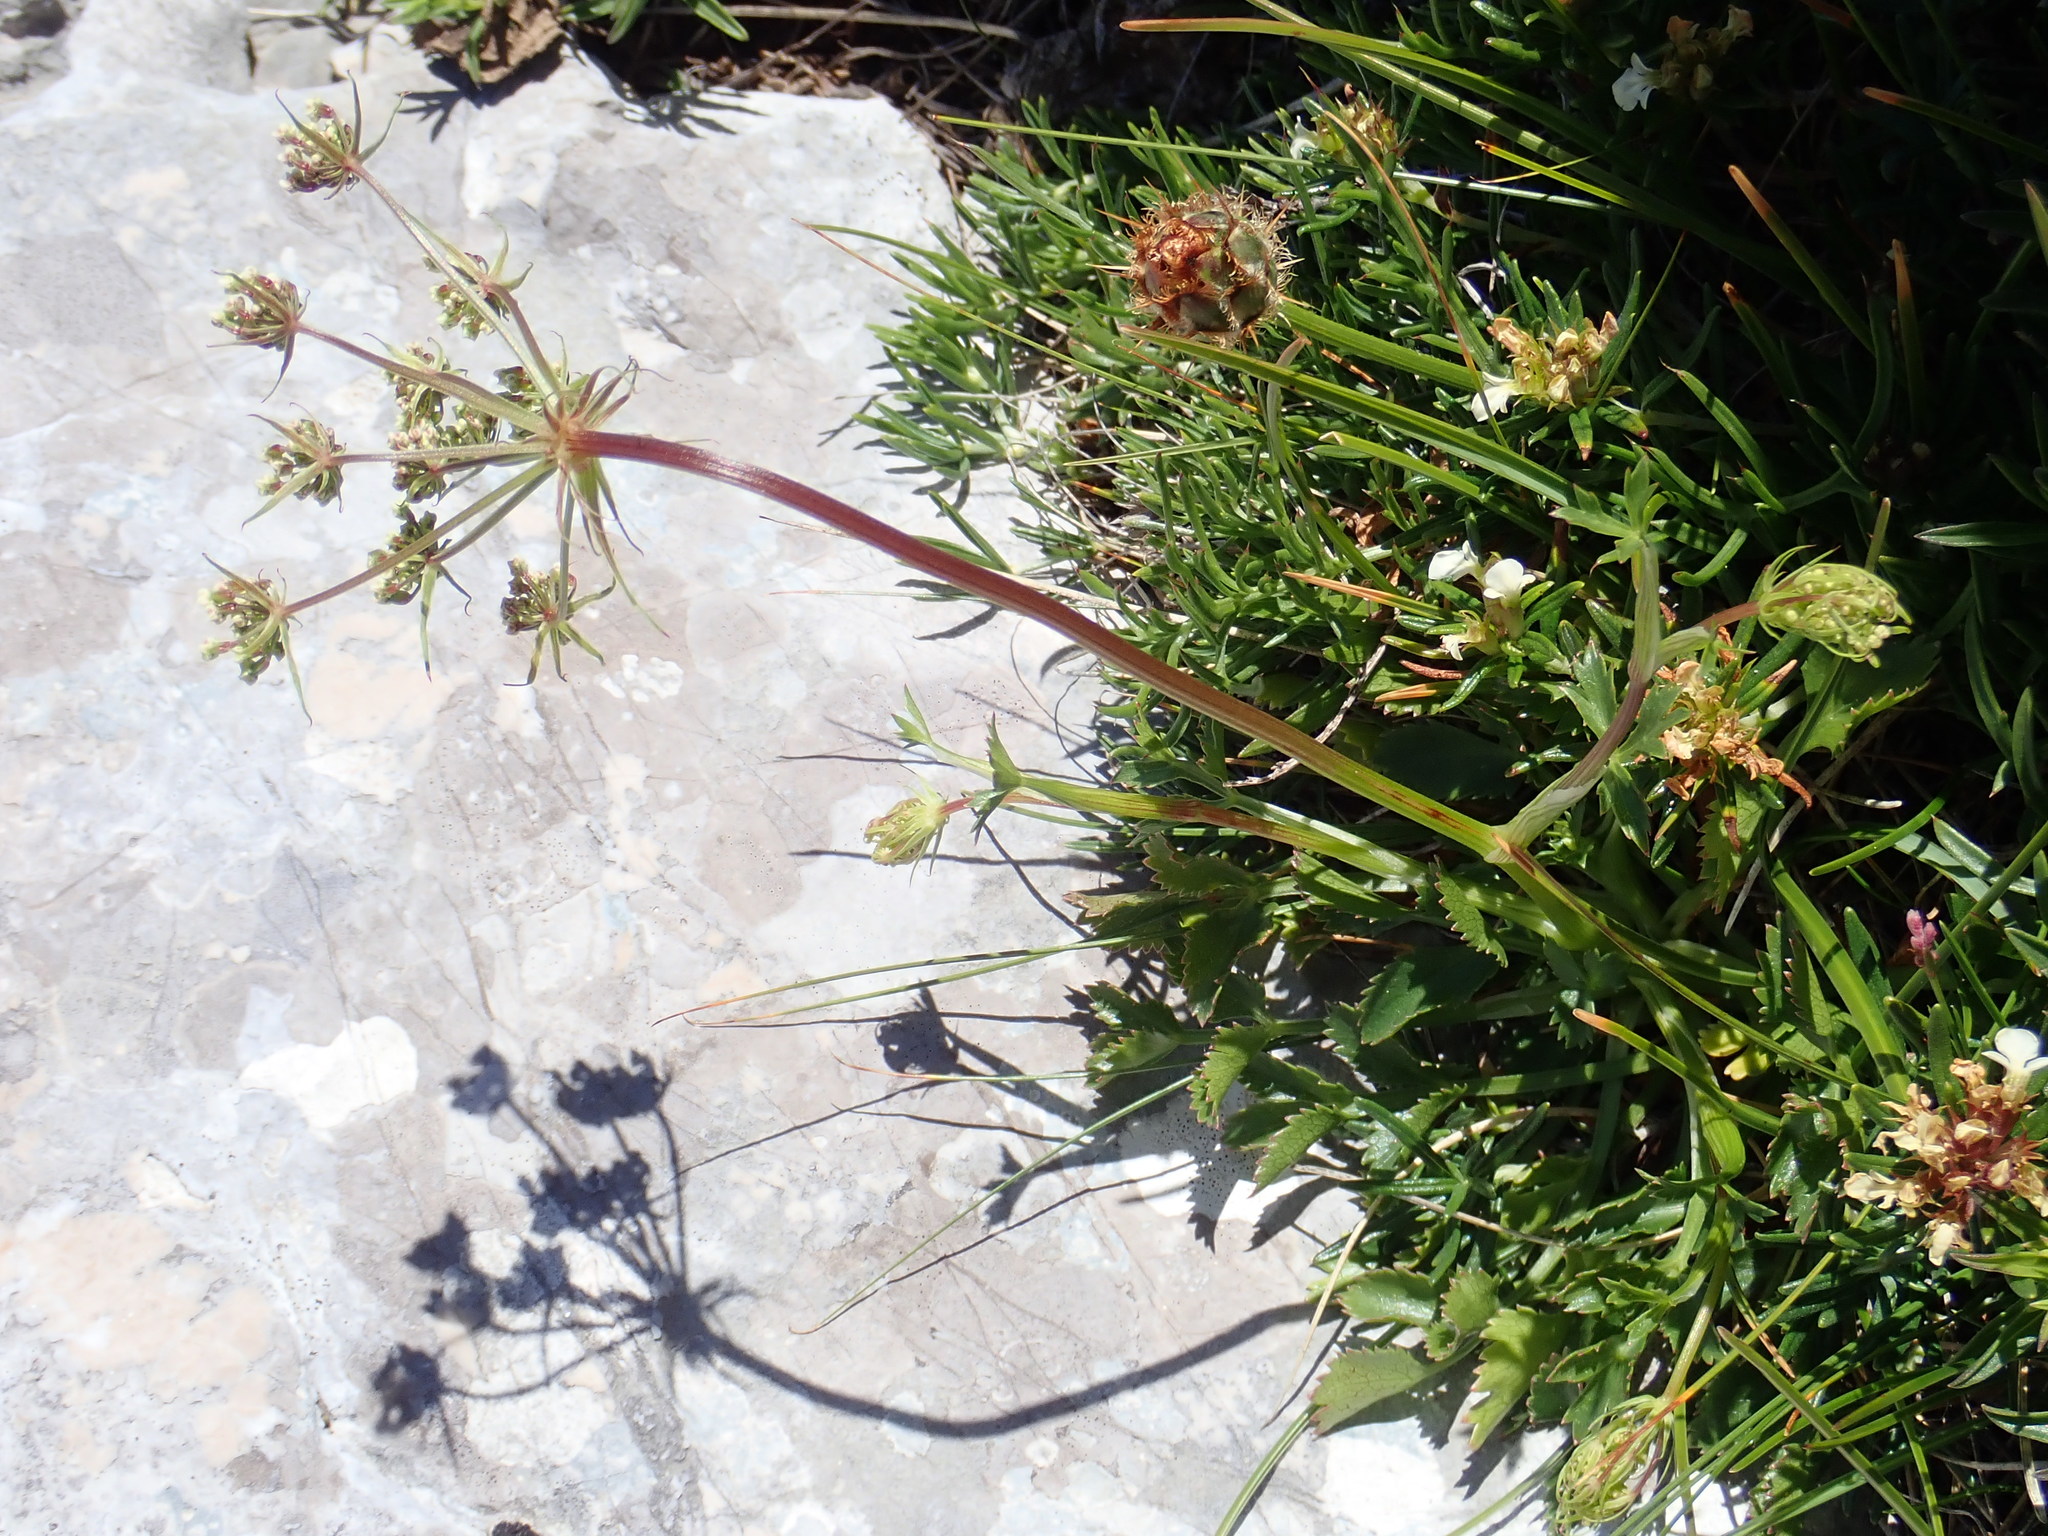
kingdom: Plantae
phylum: Tracheophyta
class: Magnoliopsida
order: Apiales
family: Apiaceae
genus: Hladnikia
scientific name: Hladnikia pastinacifolia
